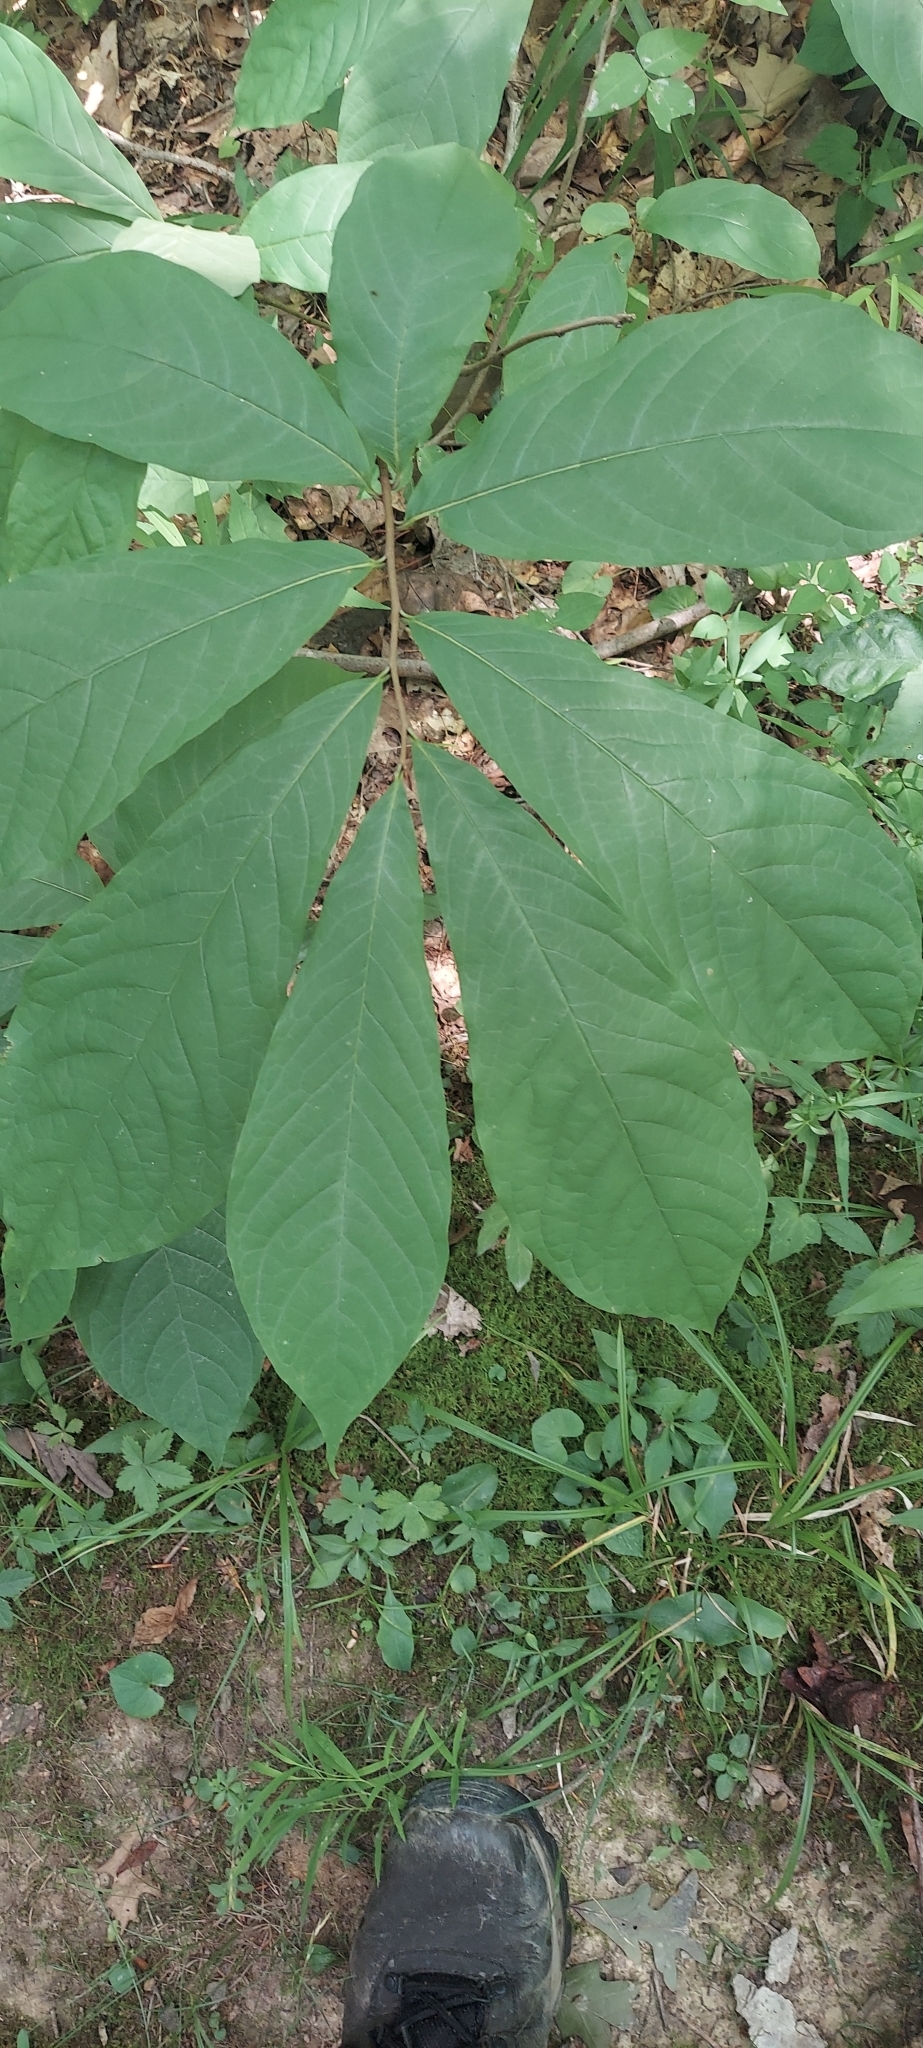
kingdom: Plantae
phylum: Tracheophyta
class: Magnoliopsida
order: Magnoliales
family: Annonaceae
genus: Asimina
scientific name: Asimina triloba
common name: Dog-banana
